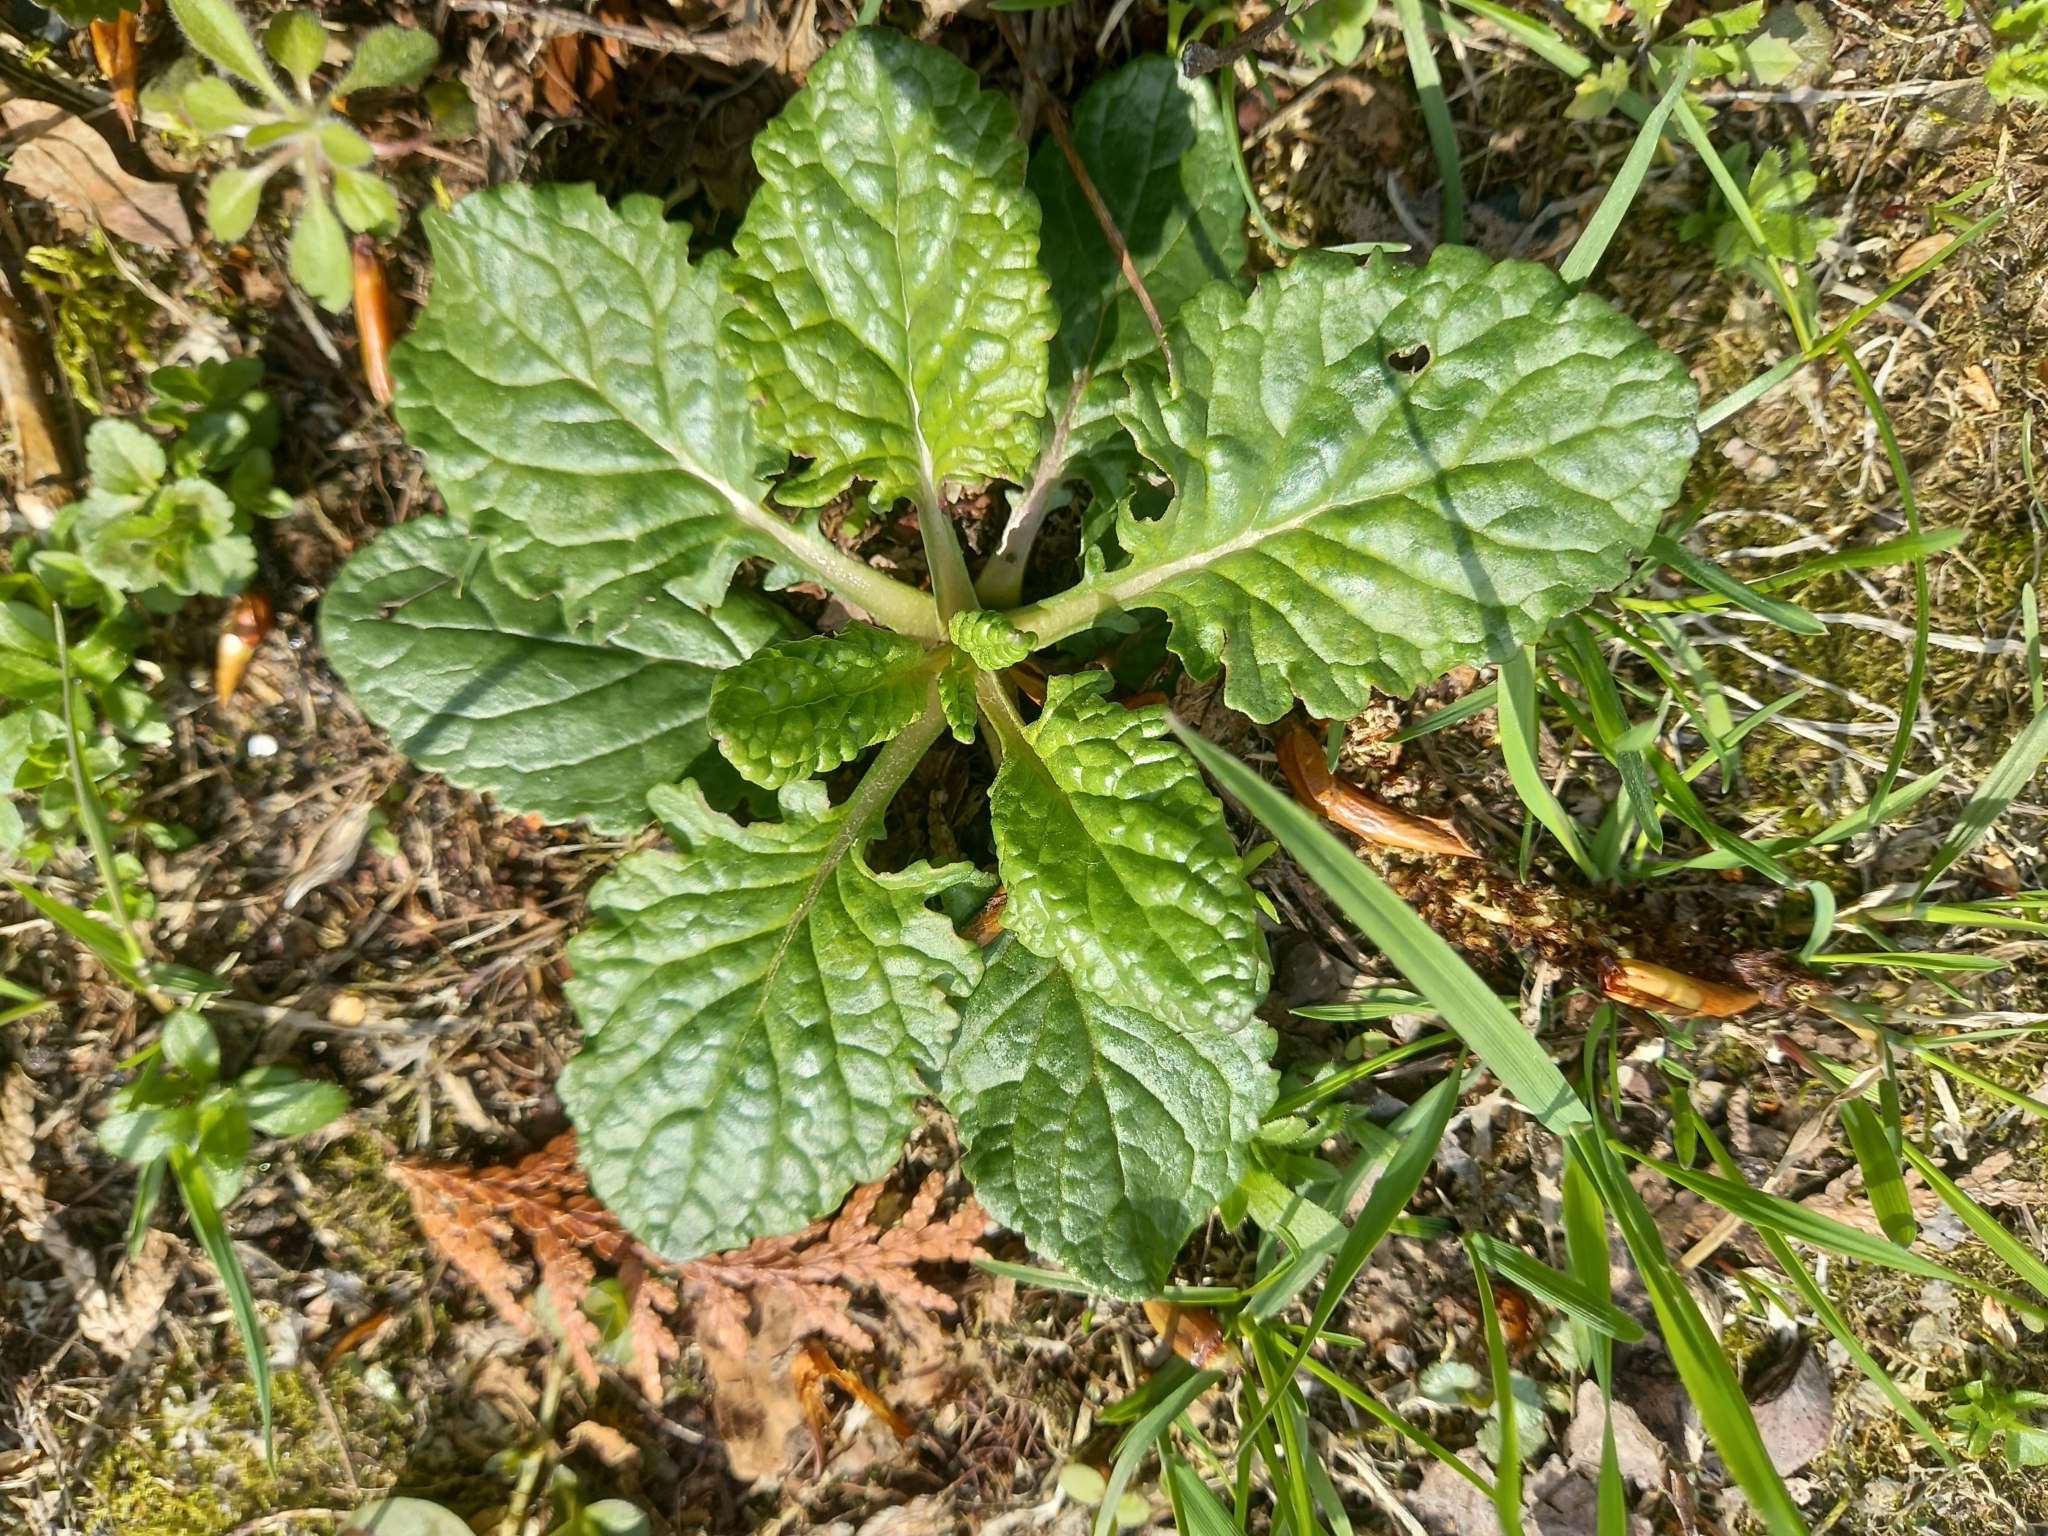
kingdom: Plantae
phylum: Tracheophyta
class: Magnoliopsida
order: Asterales
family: Asteraceae
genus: Jacobaea
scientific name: Jacobaea vulgaris
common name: Stinking willie
